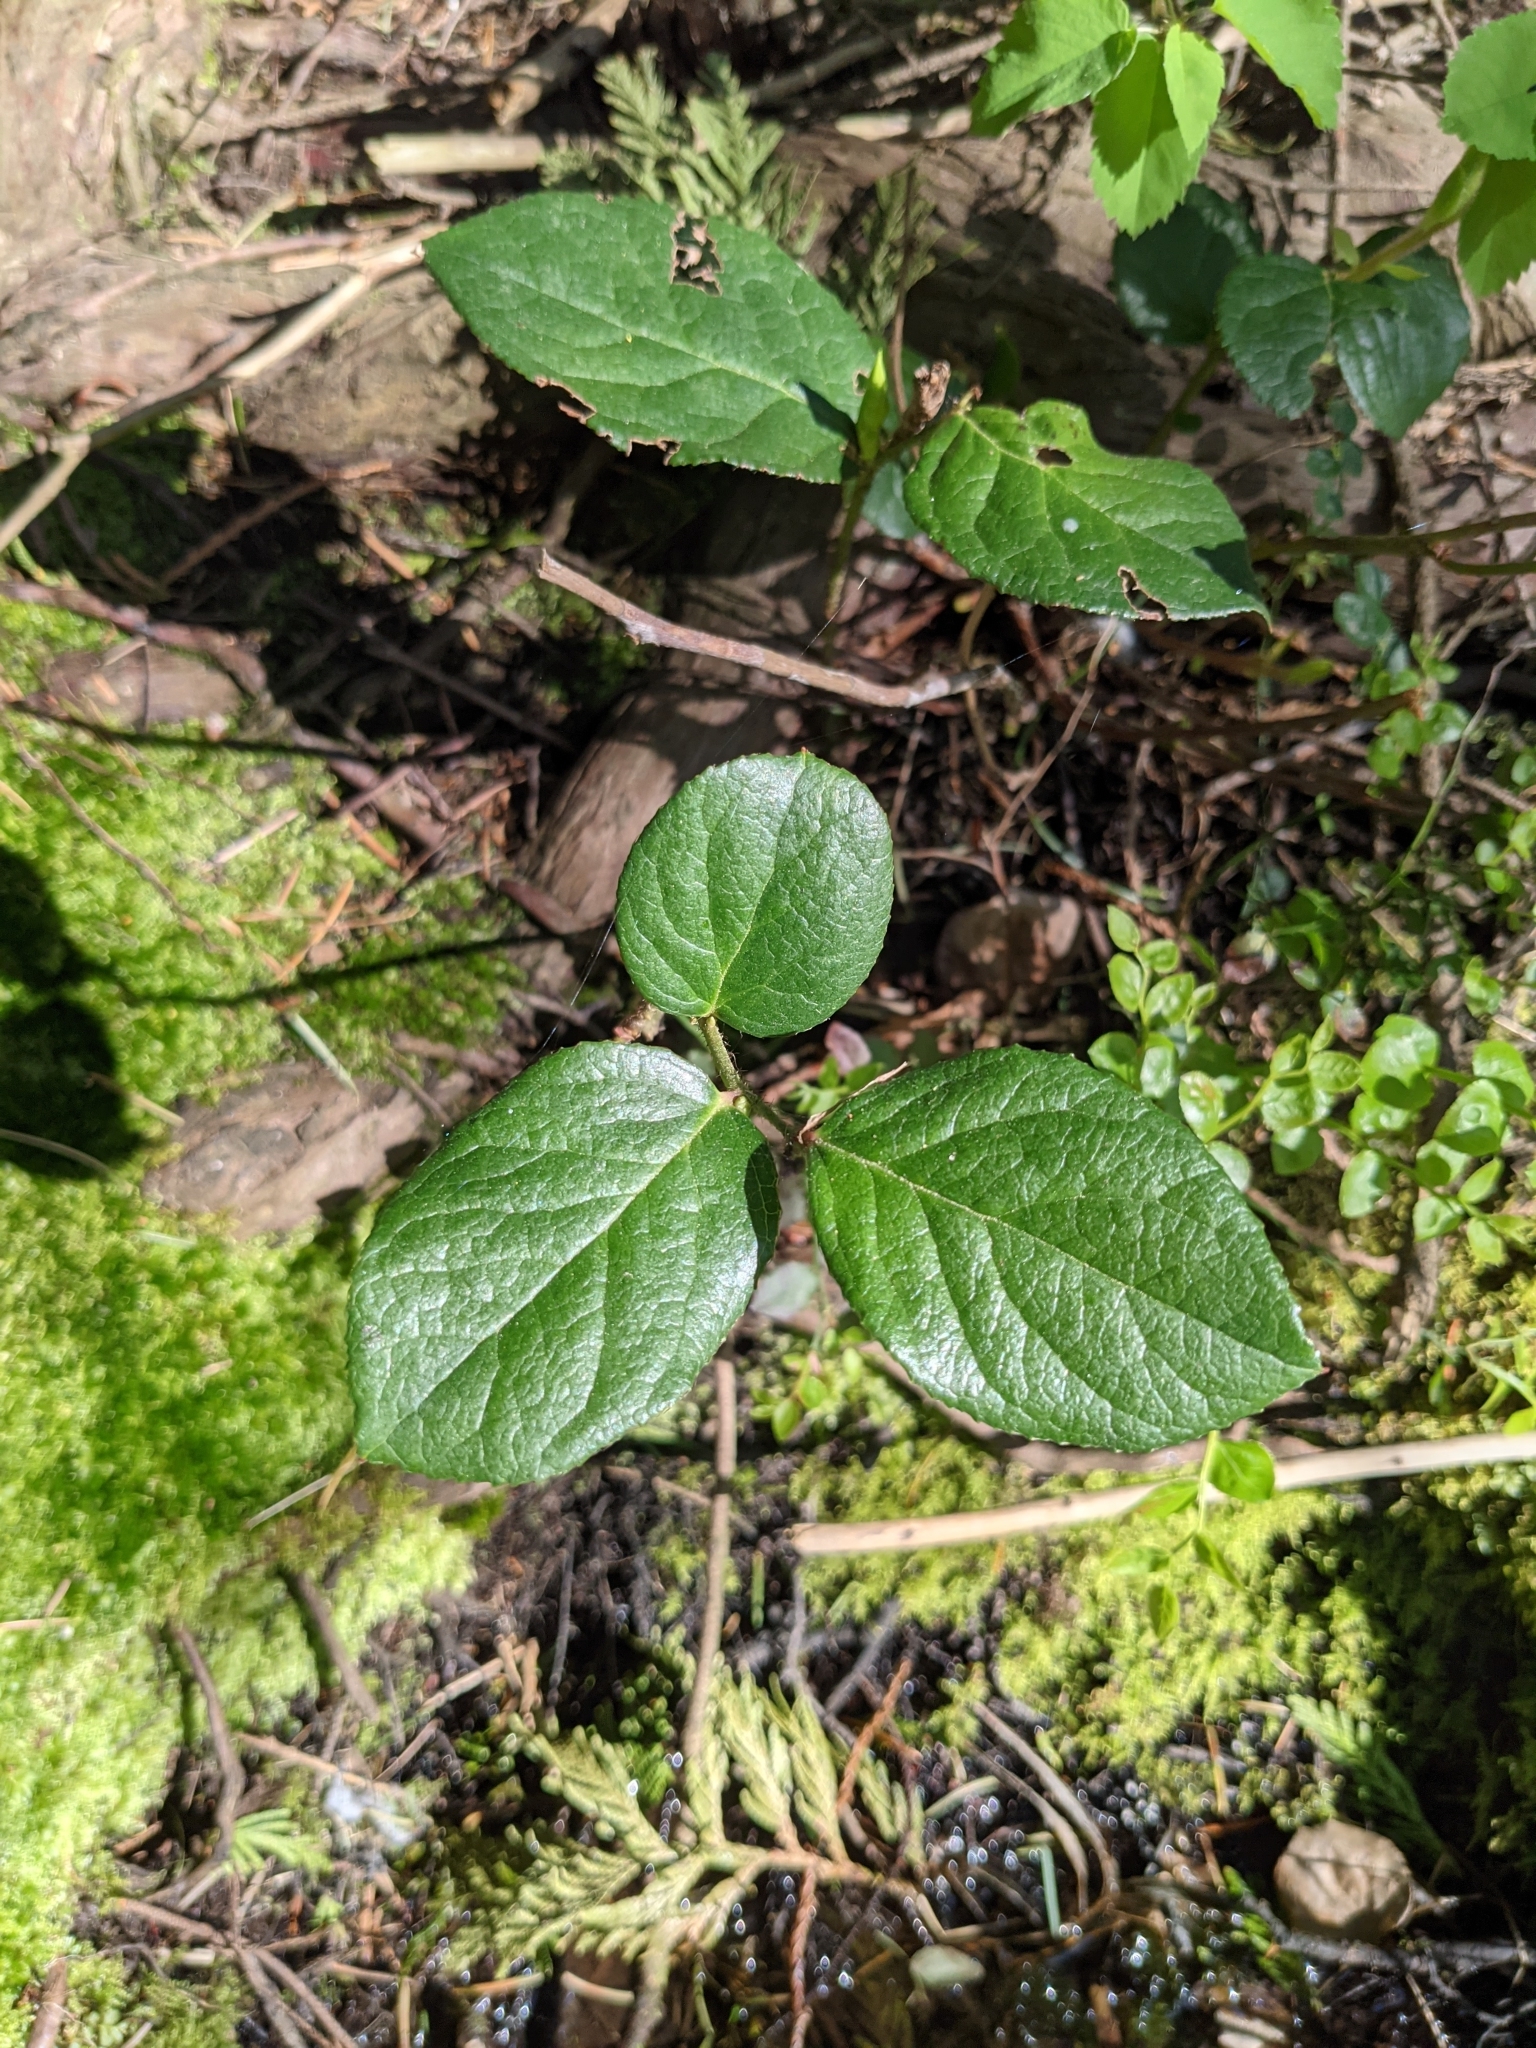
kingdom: Plantae
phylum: Tracheophyta
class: Magnoliopsida
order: Ericales
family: Ericaceae
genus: Gaultheria
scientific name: Gaultheria shallon
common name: Shallon
